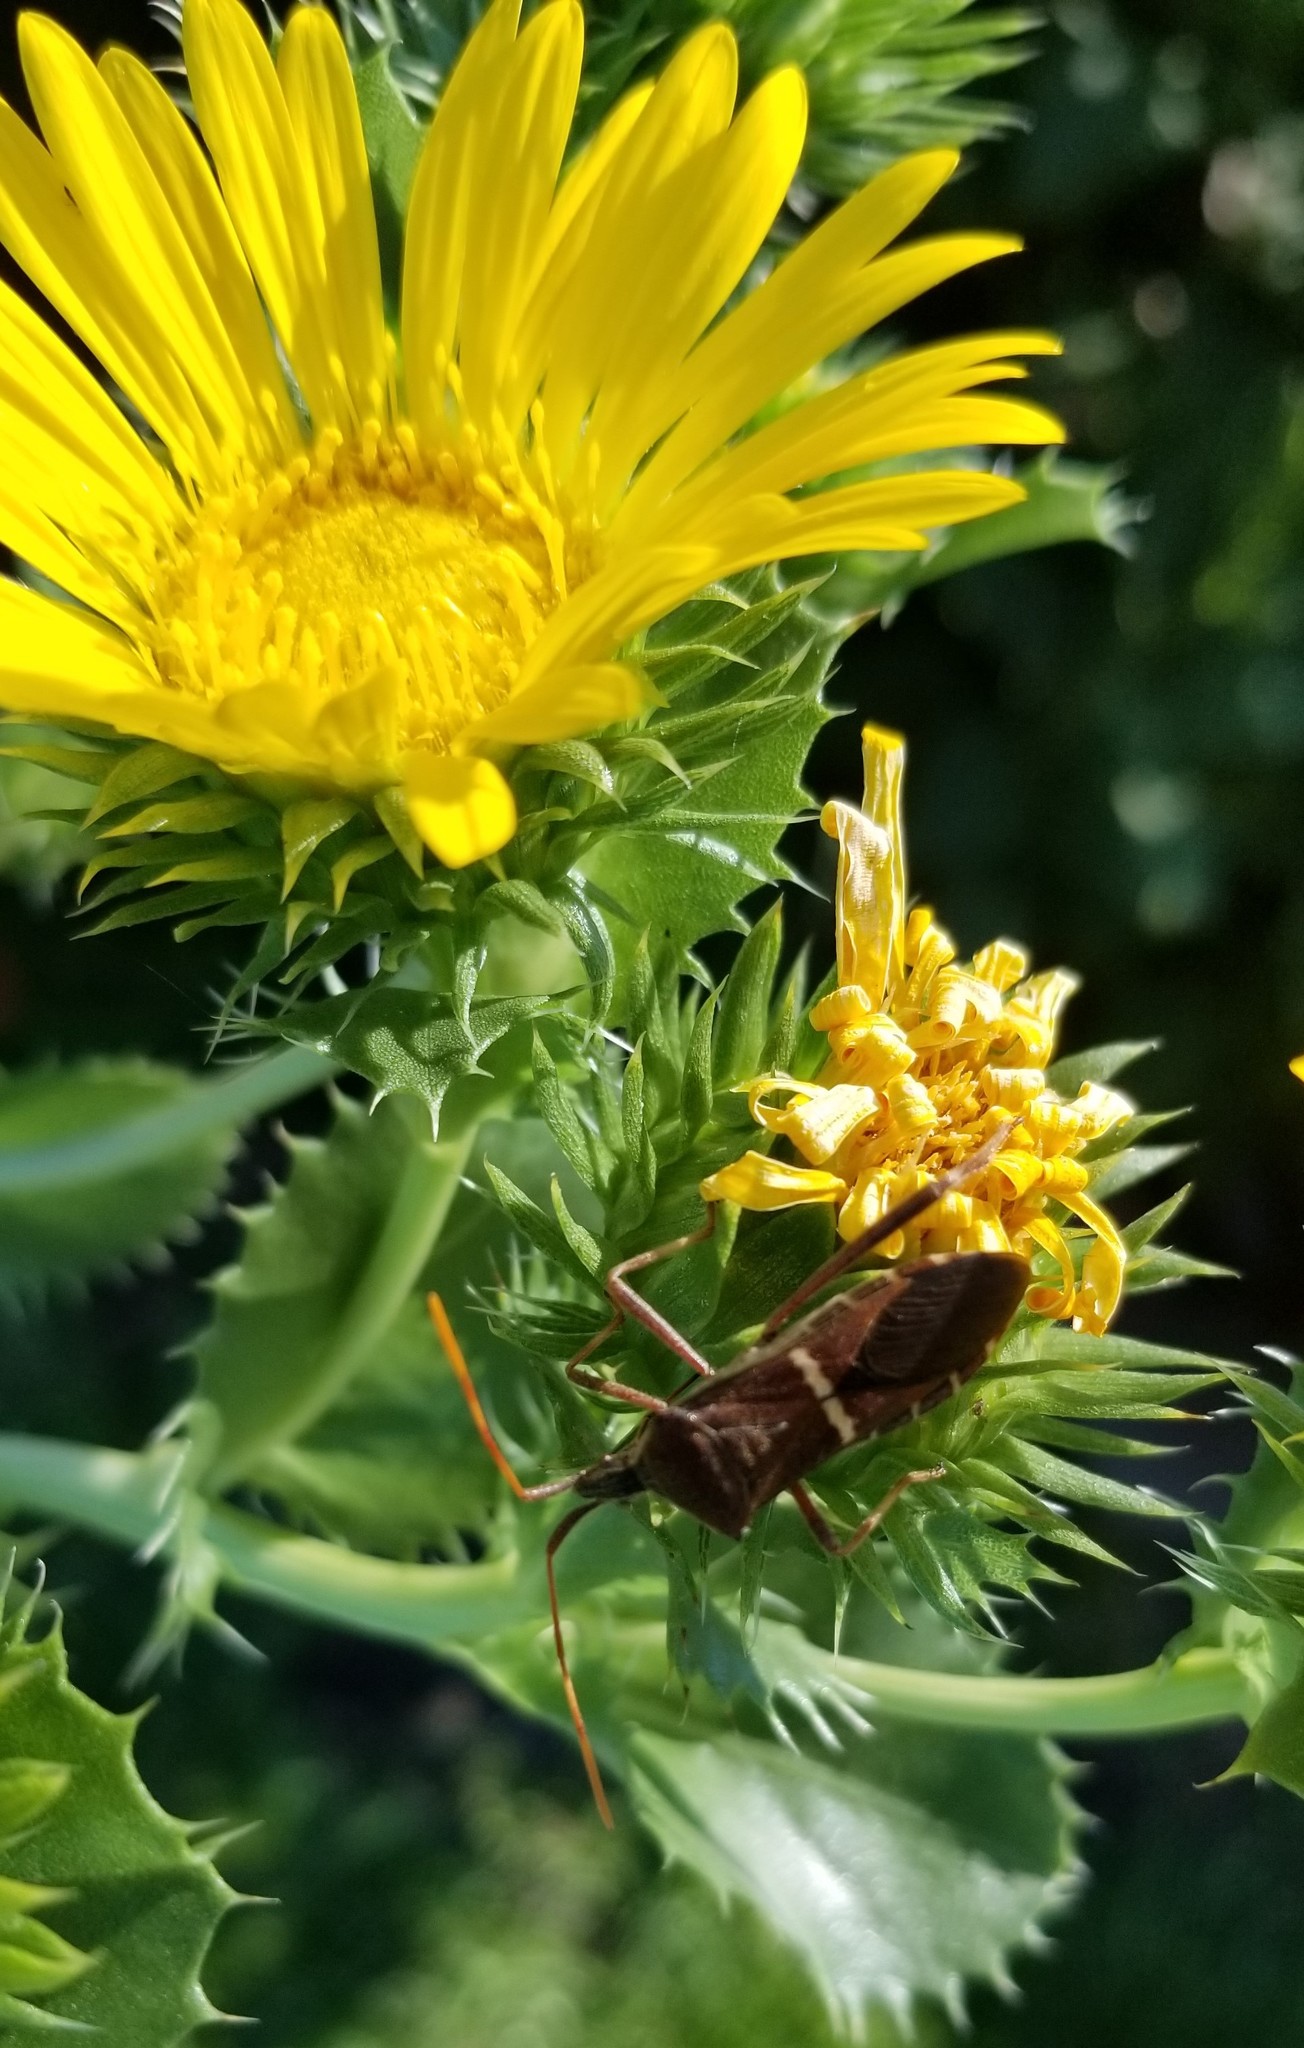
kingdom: Animalia
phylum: Arthropoda
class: Insecta
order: Hemiptera
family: Coreidae
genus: Leptoglossus
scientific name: Leptoglossus phyllopus
